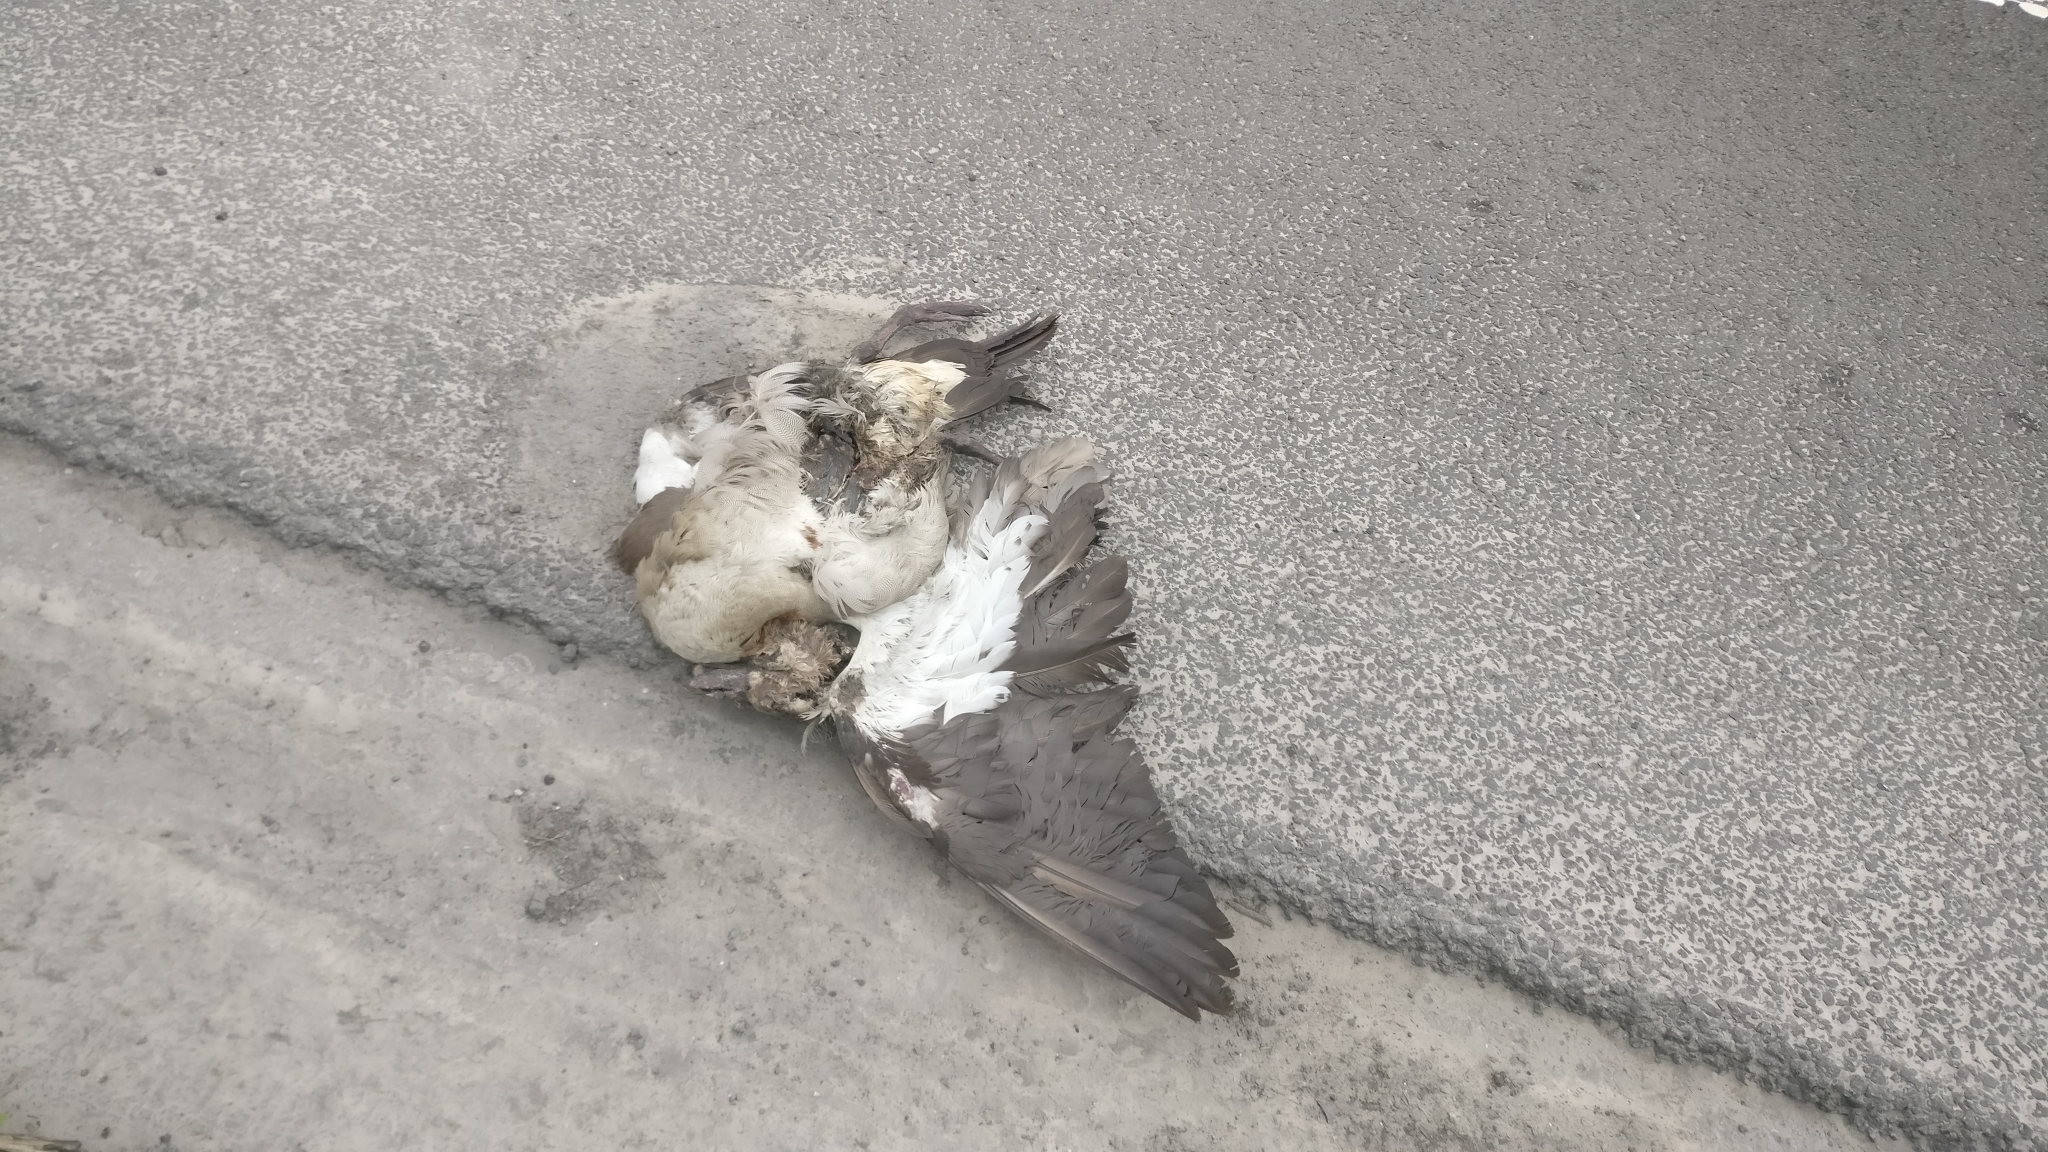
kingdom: Animalia
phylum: Chordata
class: Aves
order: Anseriformes
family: Anatidae
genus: Alopochen
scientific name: Alopochen aegyptiaca
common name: Egyptian goose
